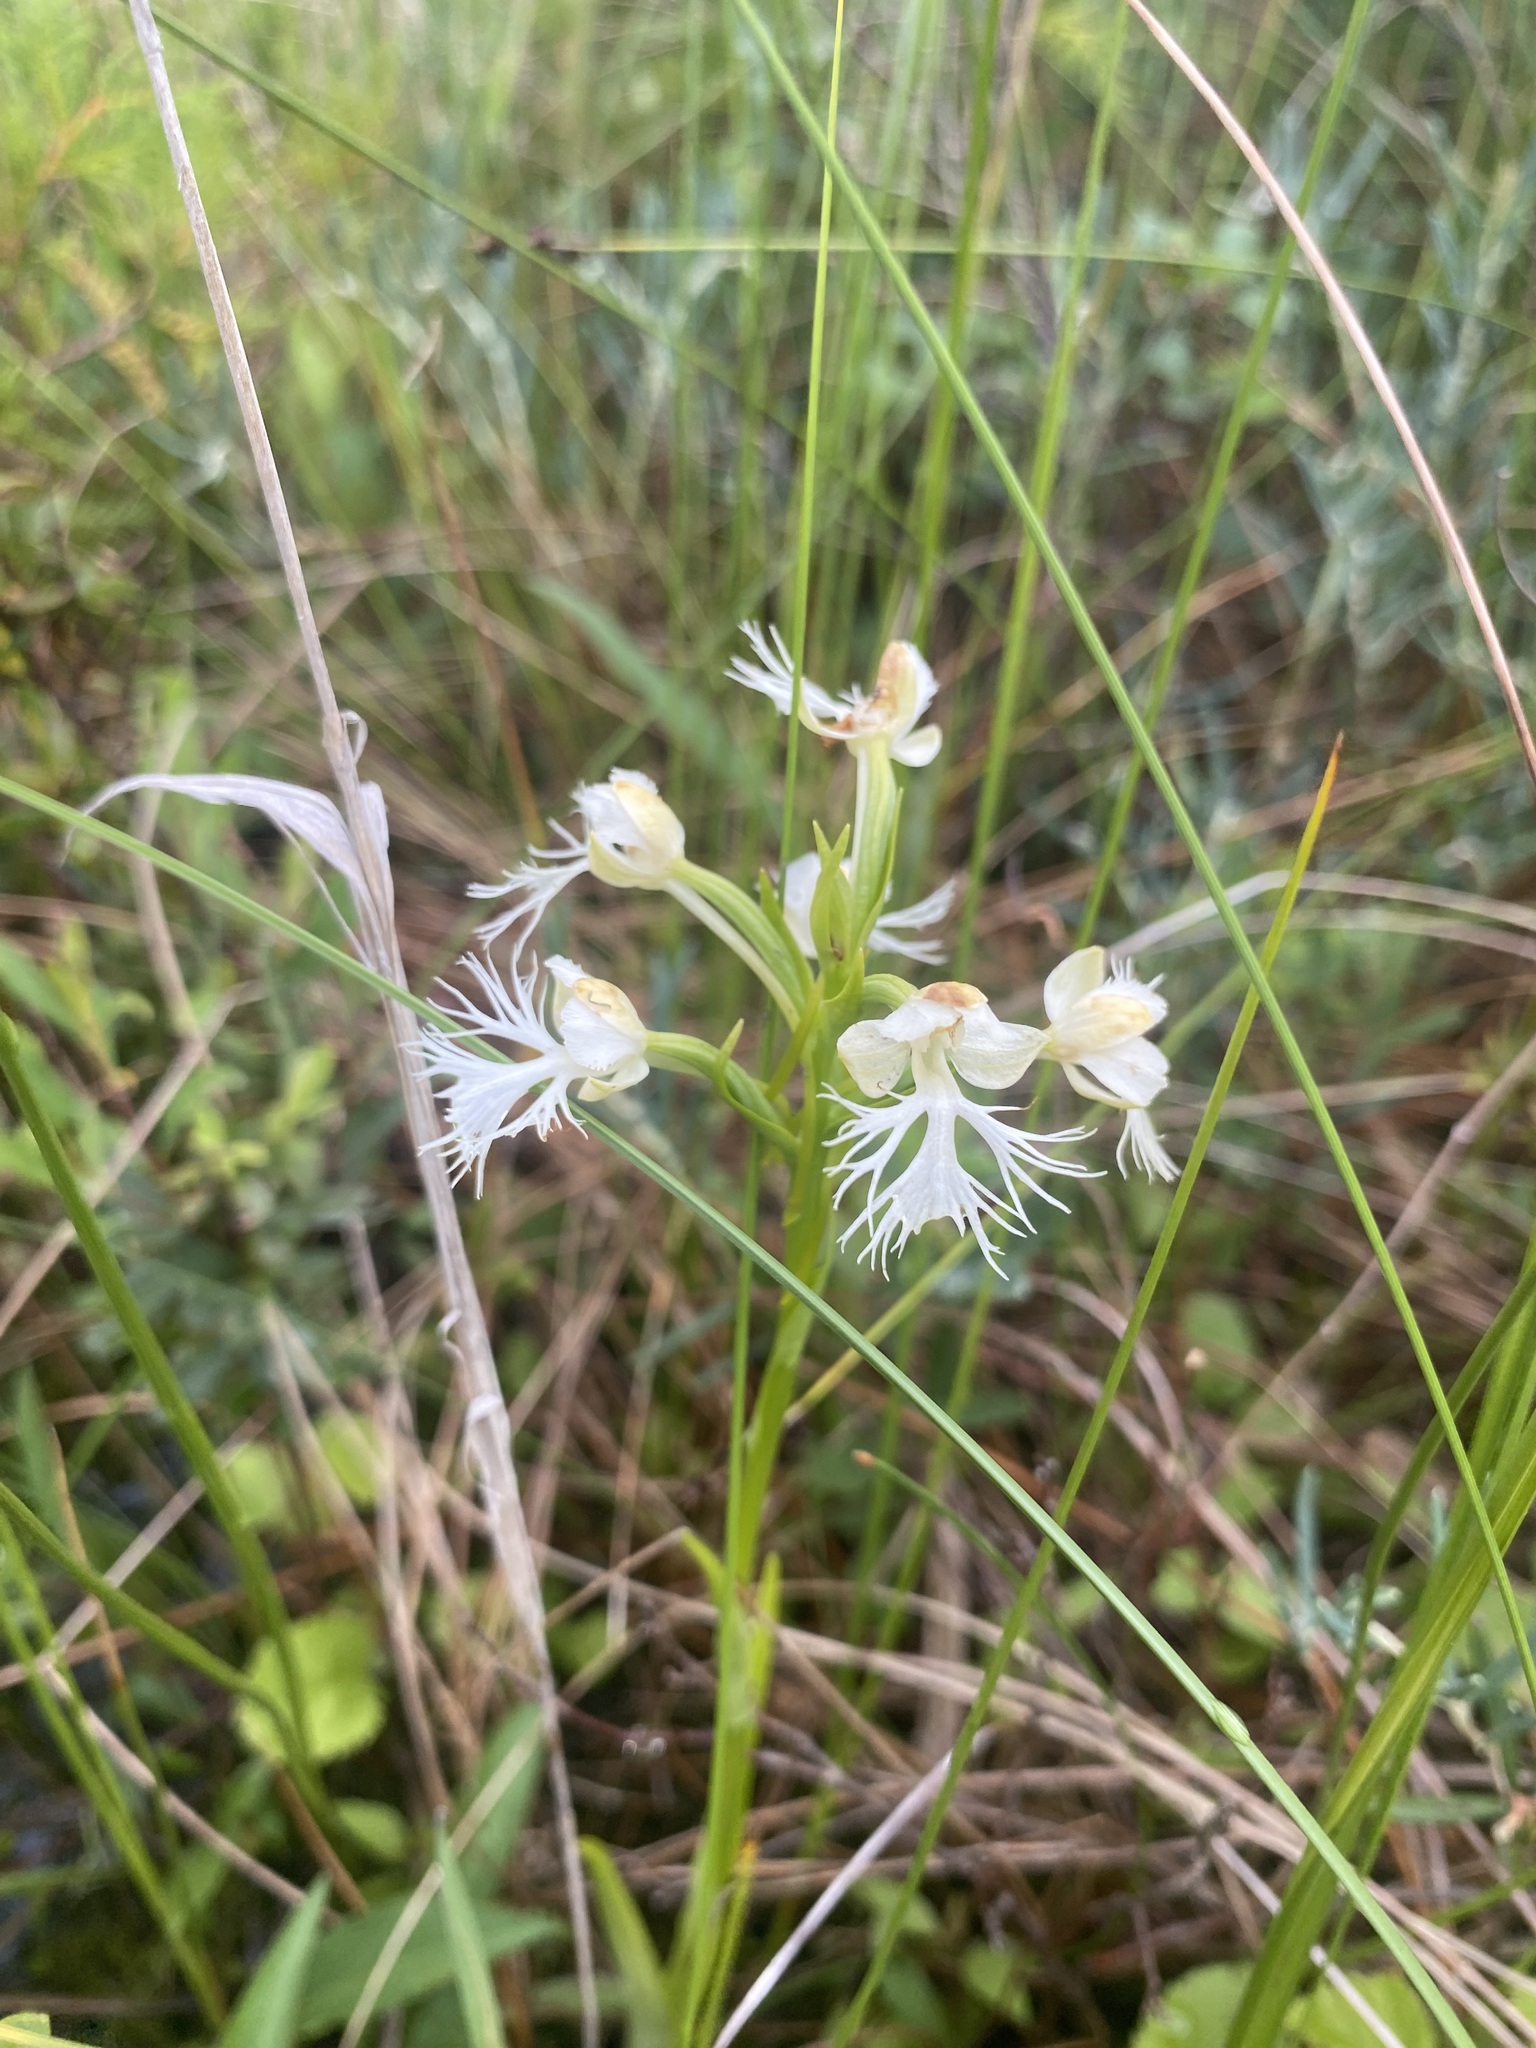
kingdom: Plantae
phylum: Tracheophyta
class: Liliopsida
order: Asparagales
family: Orchidaceae
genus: Platanthera
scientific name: Platanthera leucophaea
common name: Eastern prairie white-fringed orchid
